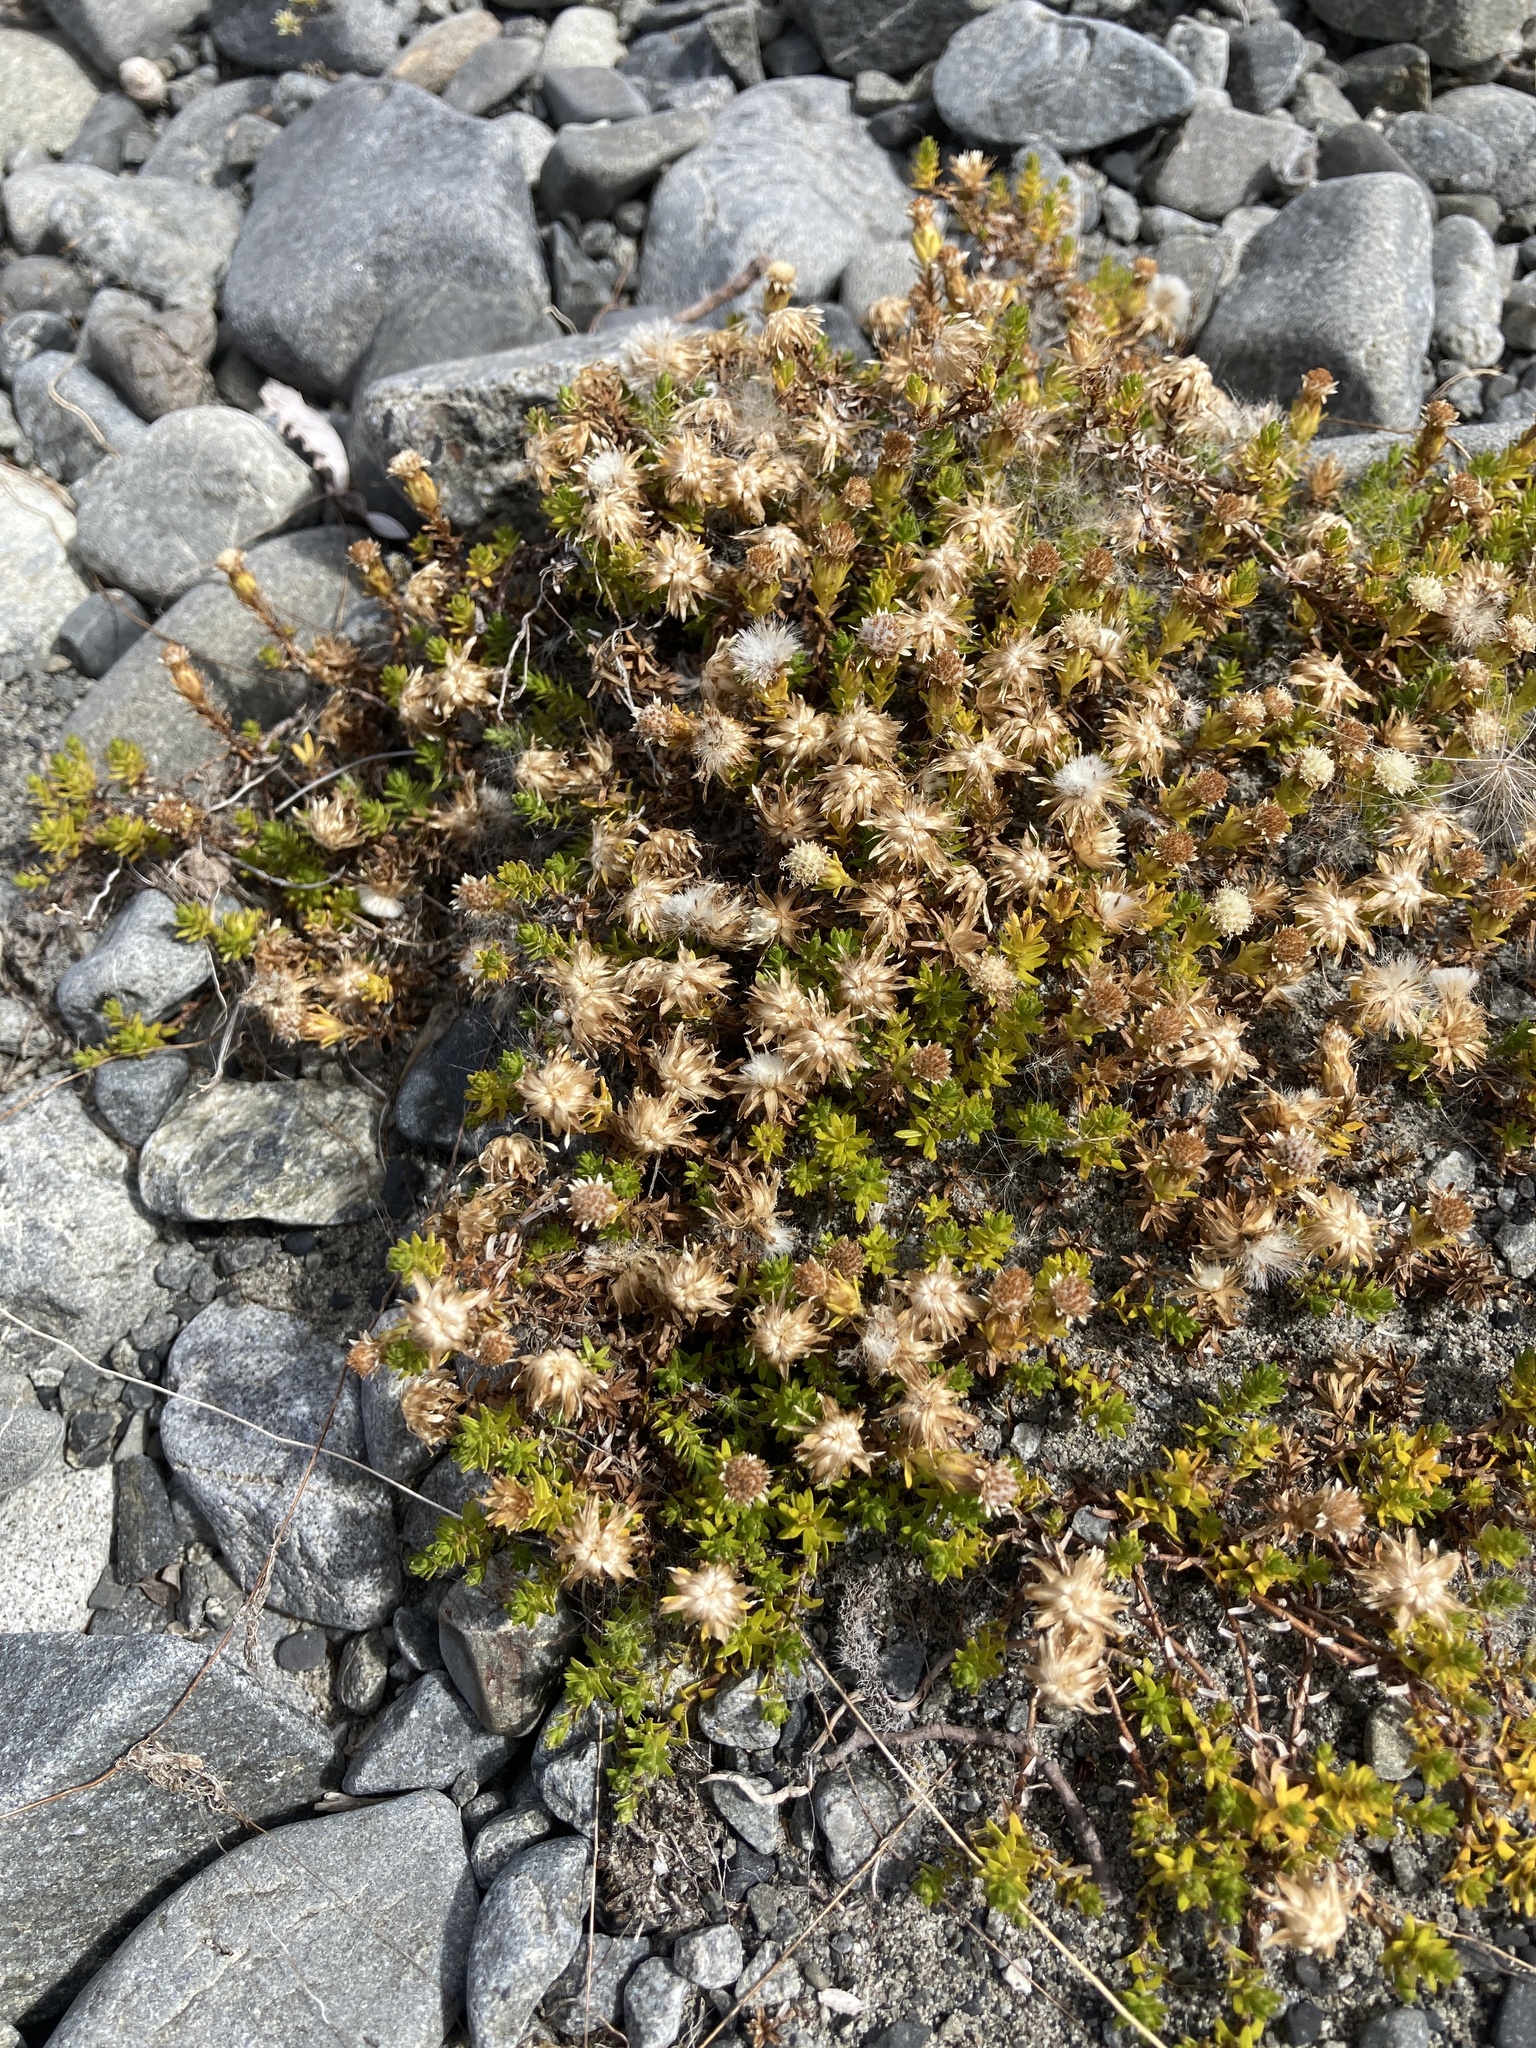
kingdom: Plantae
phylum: Tracheophyta
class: Magnoliopsida
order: Asterales
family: Asteraceae
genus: Raoulia
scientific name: Raoulia glabra
